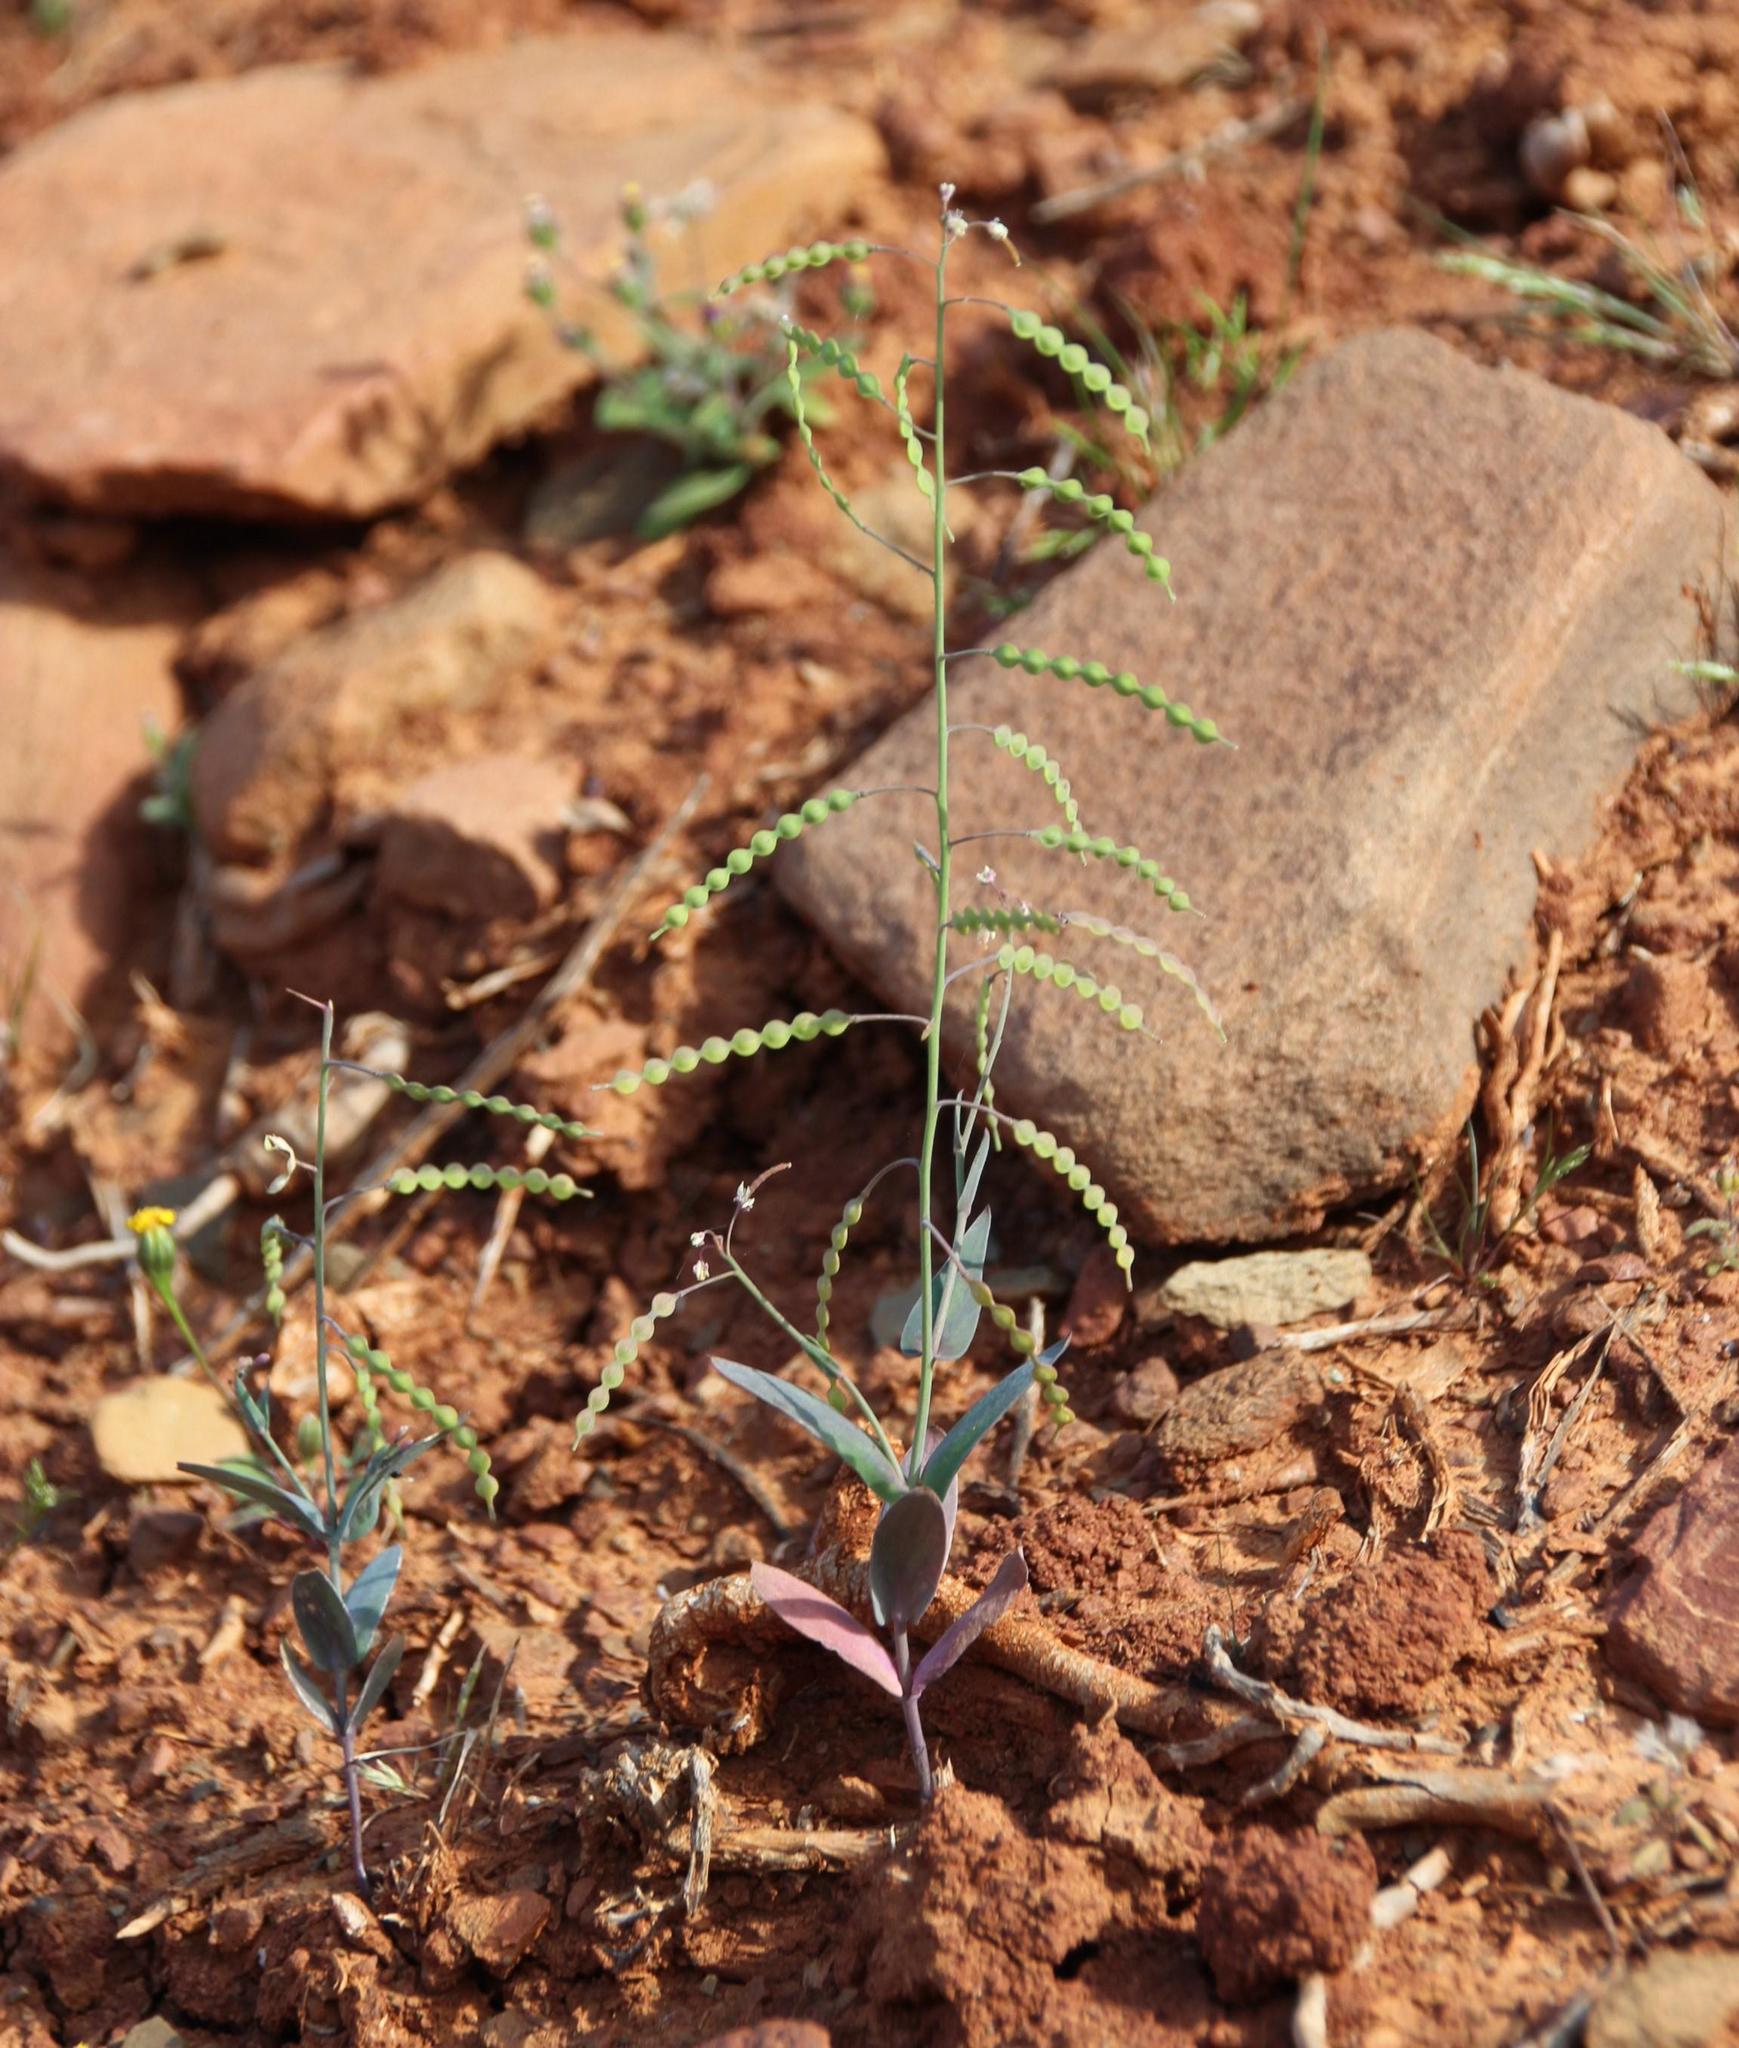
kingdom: Plantae
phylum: Tracheophyta
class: Magnoliopsida
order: Brassicales
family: Brassicaceae
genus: Heliophila
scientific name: Heliophila amplexicaulis
